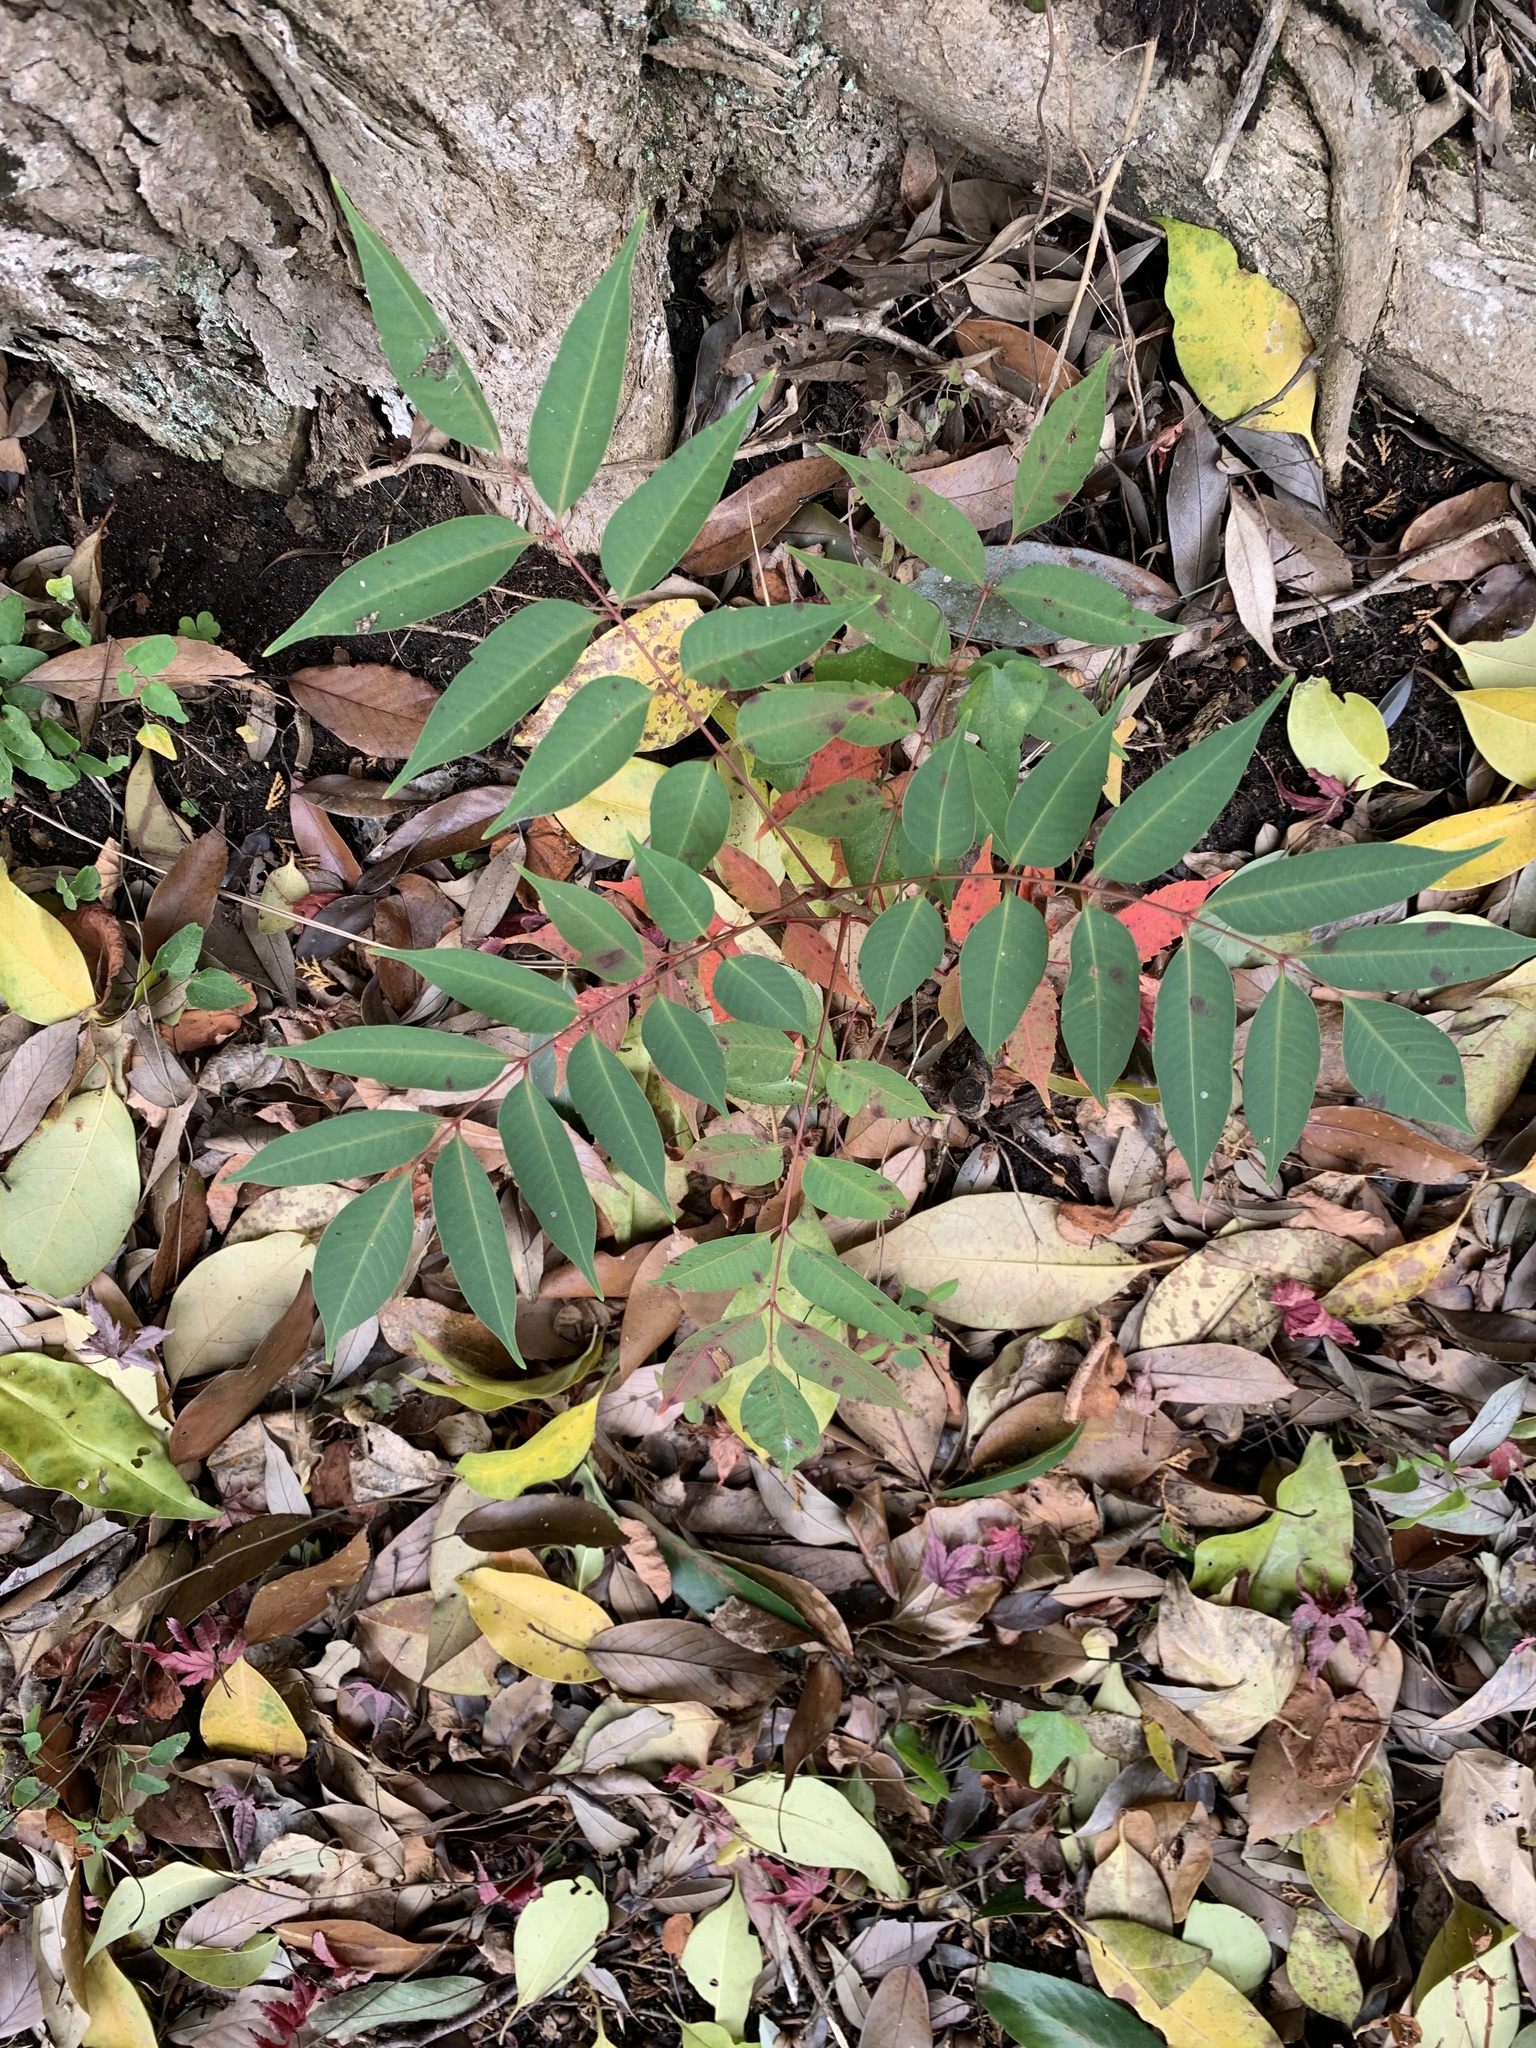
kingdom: Plantae
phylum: Tracheophyta
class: Magnoliopsida
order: Sapindales
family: Anacardiaceae
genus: Toxicodendron
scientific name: Toxicodendron succedaneum
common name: Wax tree
